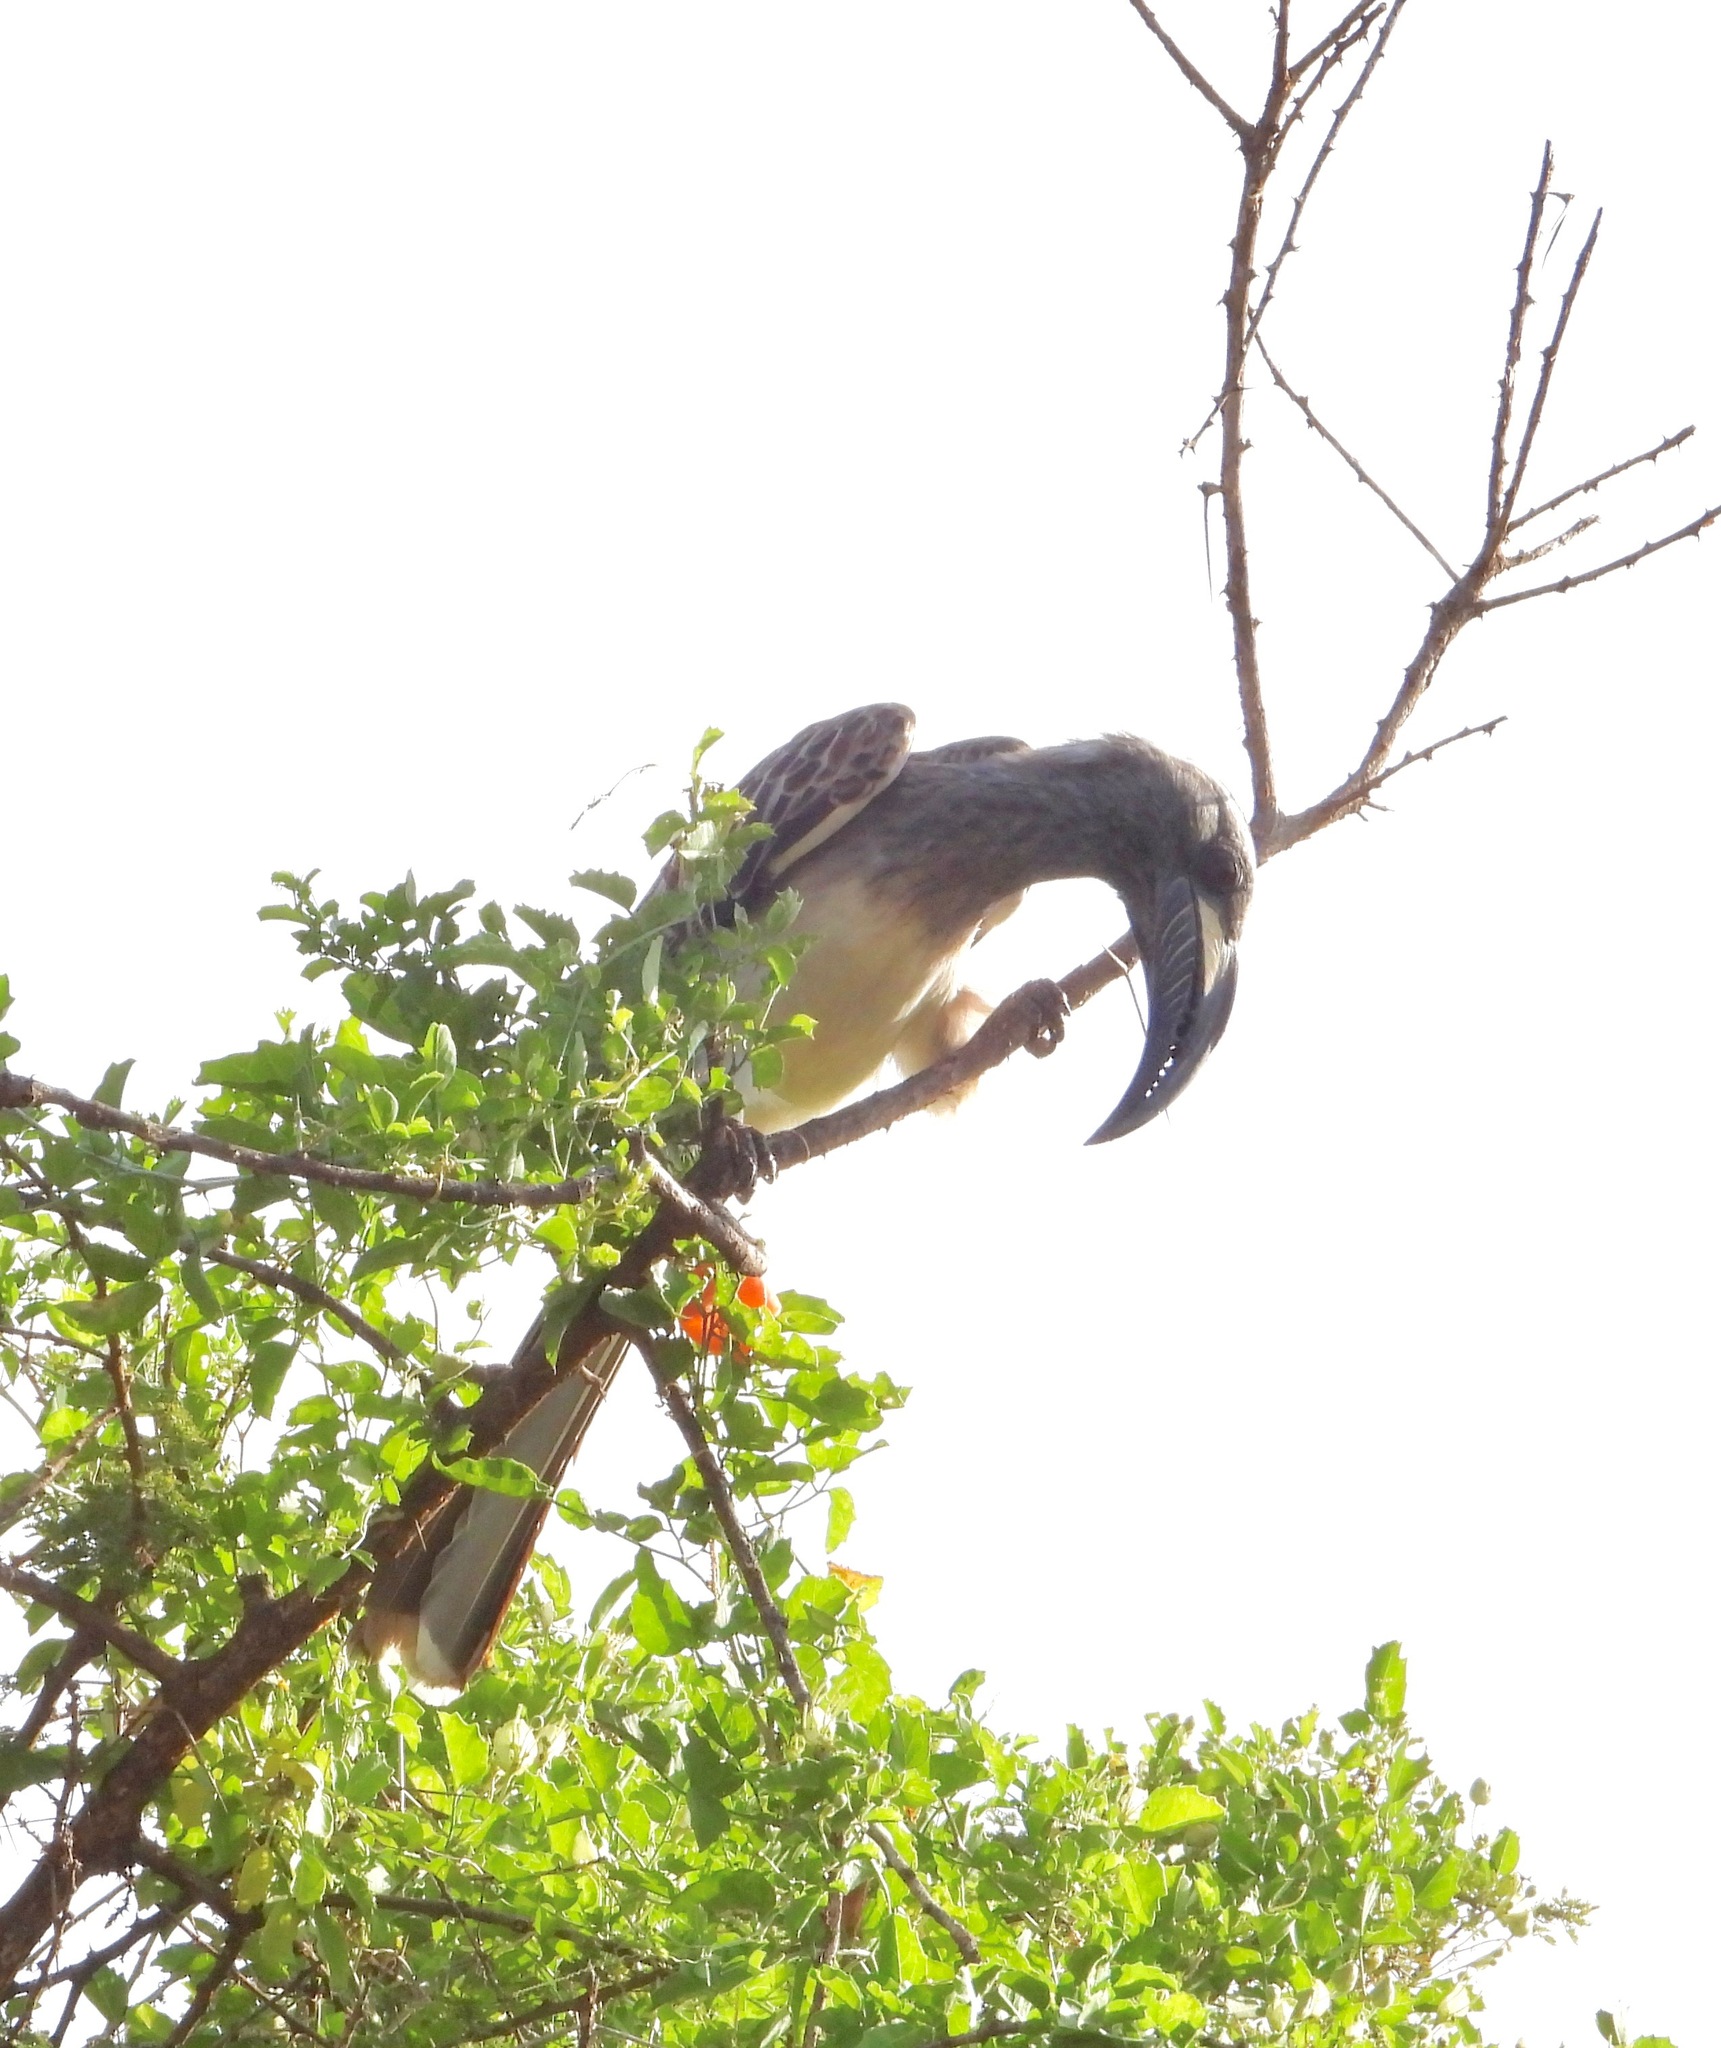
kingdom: Animalia
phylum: Chordata
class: Aves
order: Bucerotiformes
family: Bucerotidae
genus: Lophoceros
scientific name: Lophoceros nasutus
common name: African grey hornbill
